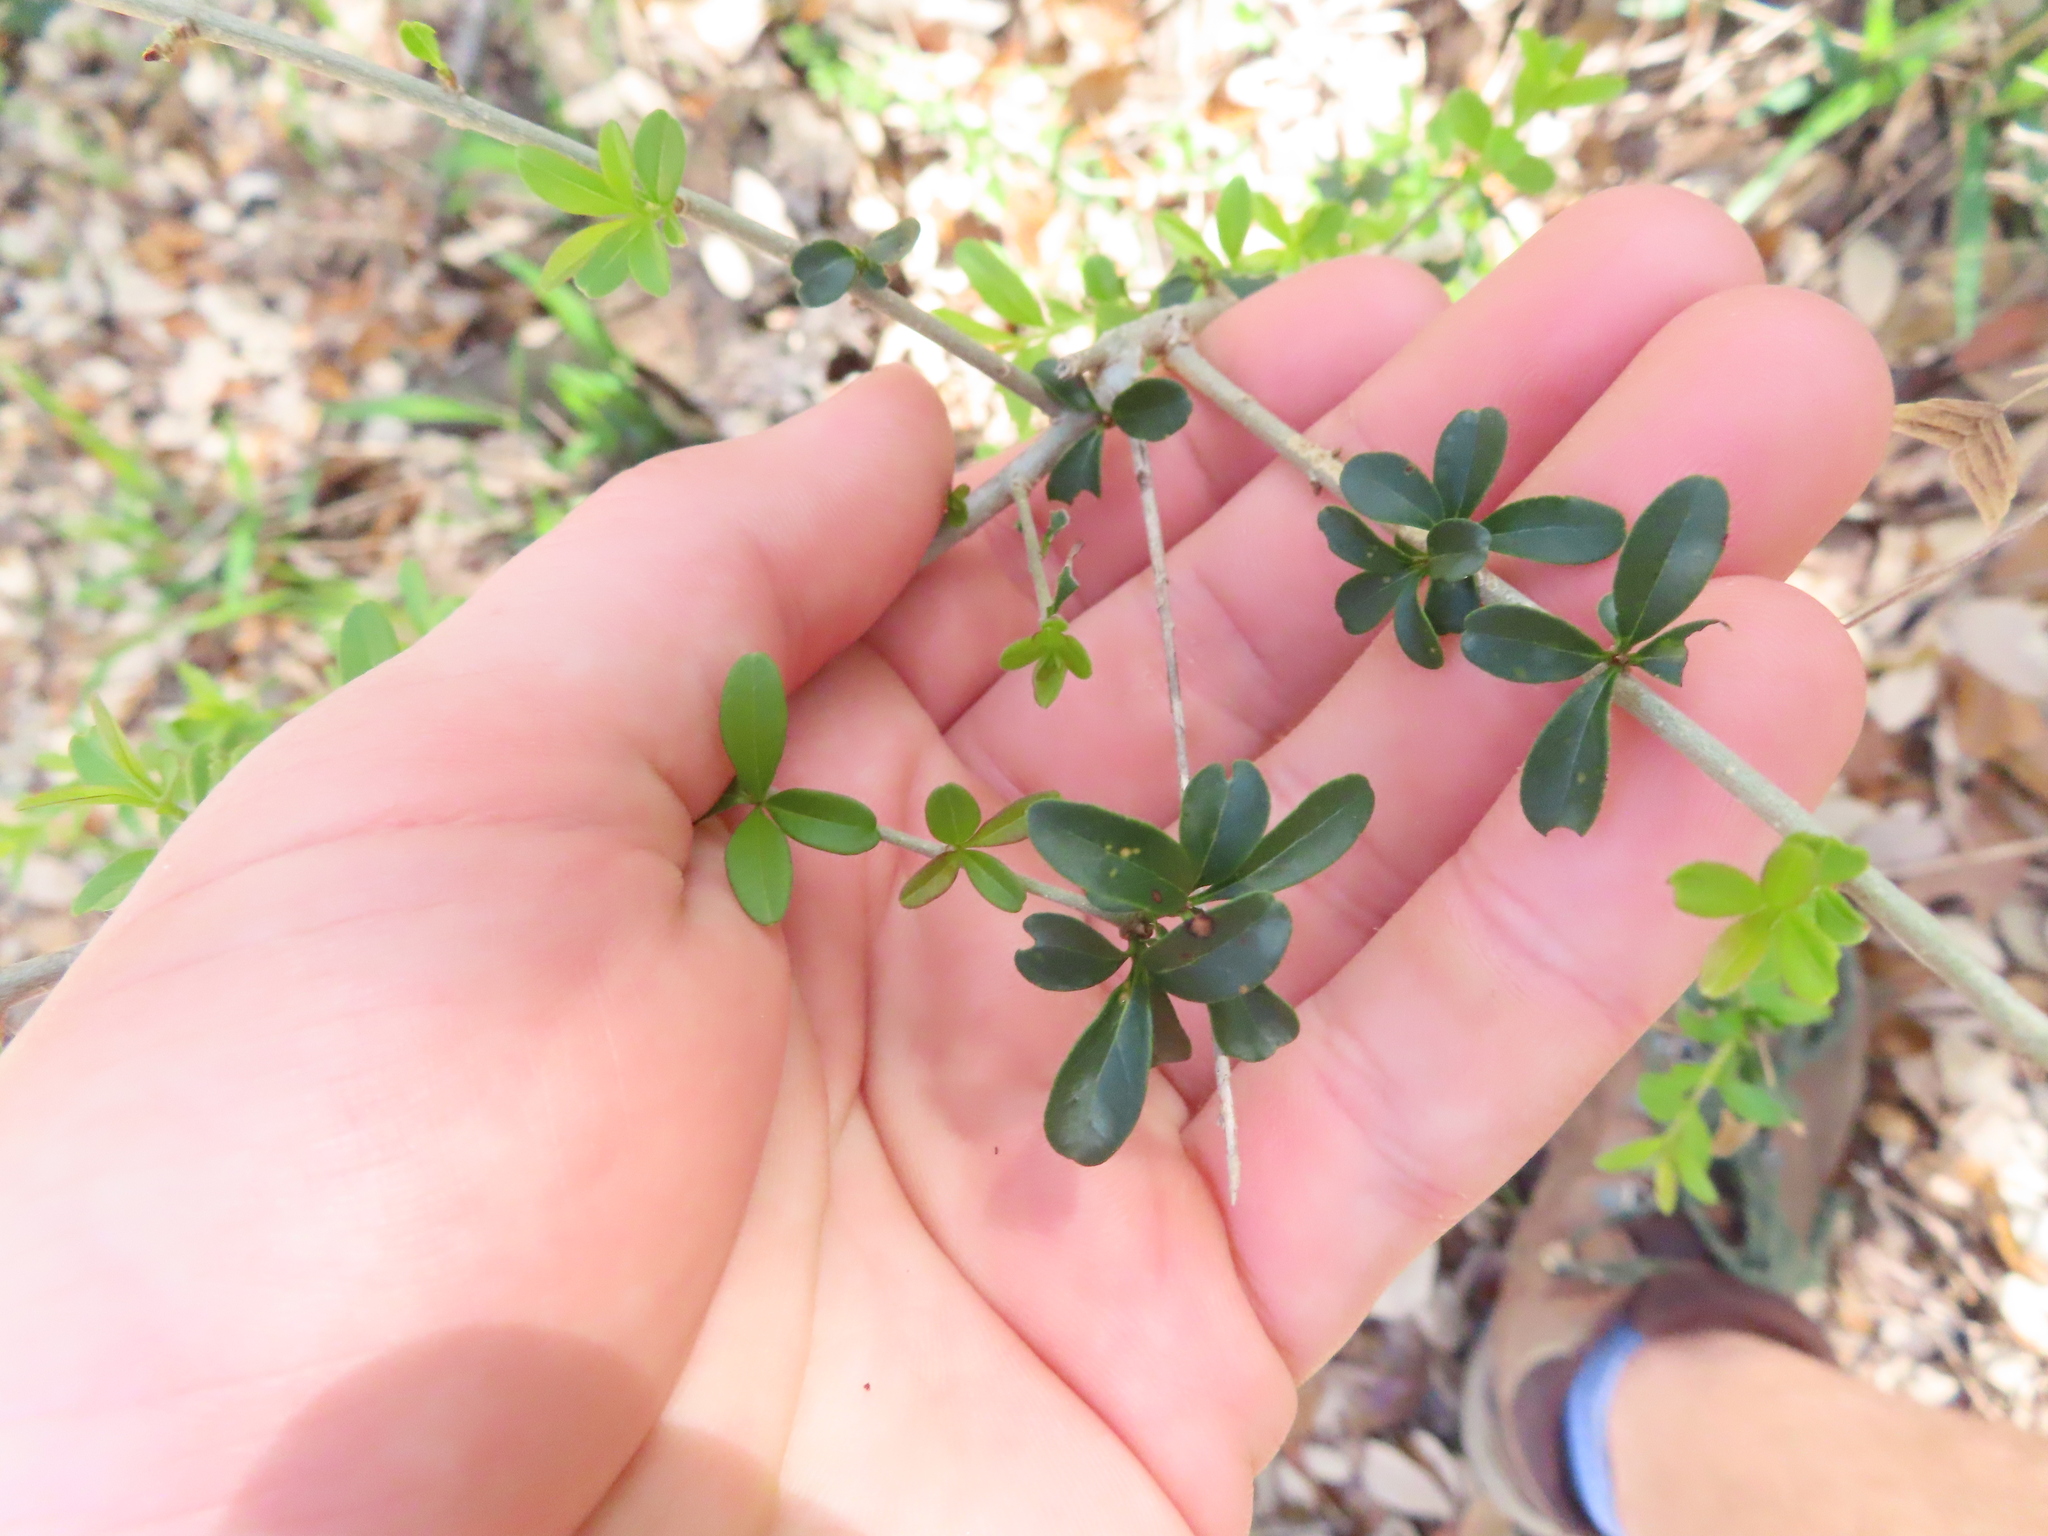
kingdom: Plantae
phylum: Tracheophyta
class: Magnoliopsida
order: Lamiales
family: Oleaceae
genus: Ligustrum
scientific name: Ligustrum quihoui
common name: Waxyleaf privet
